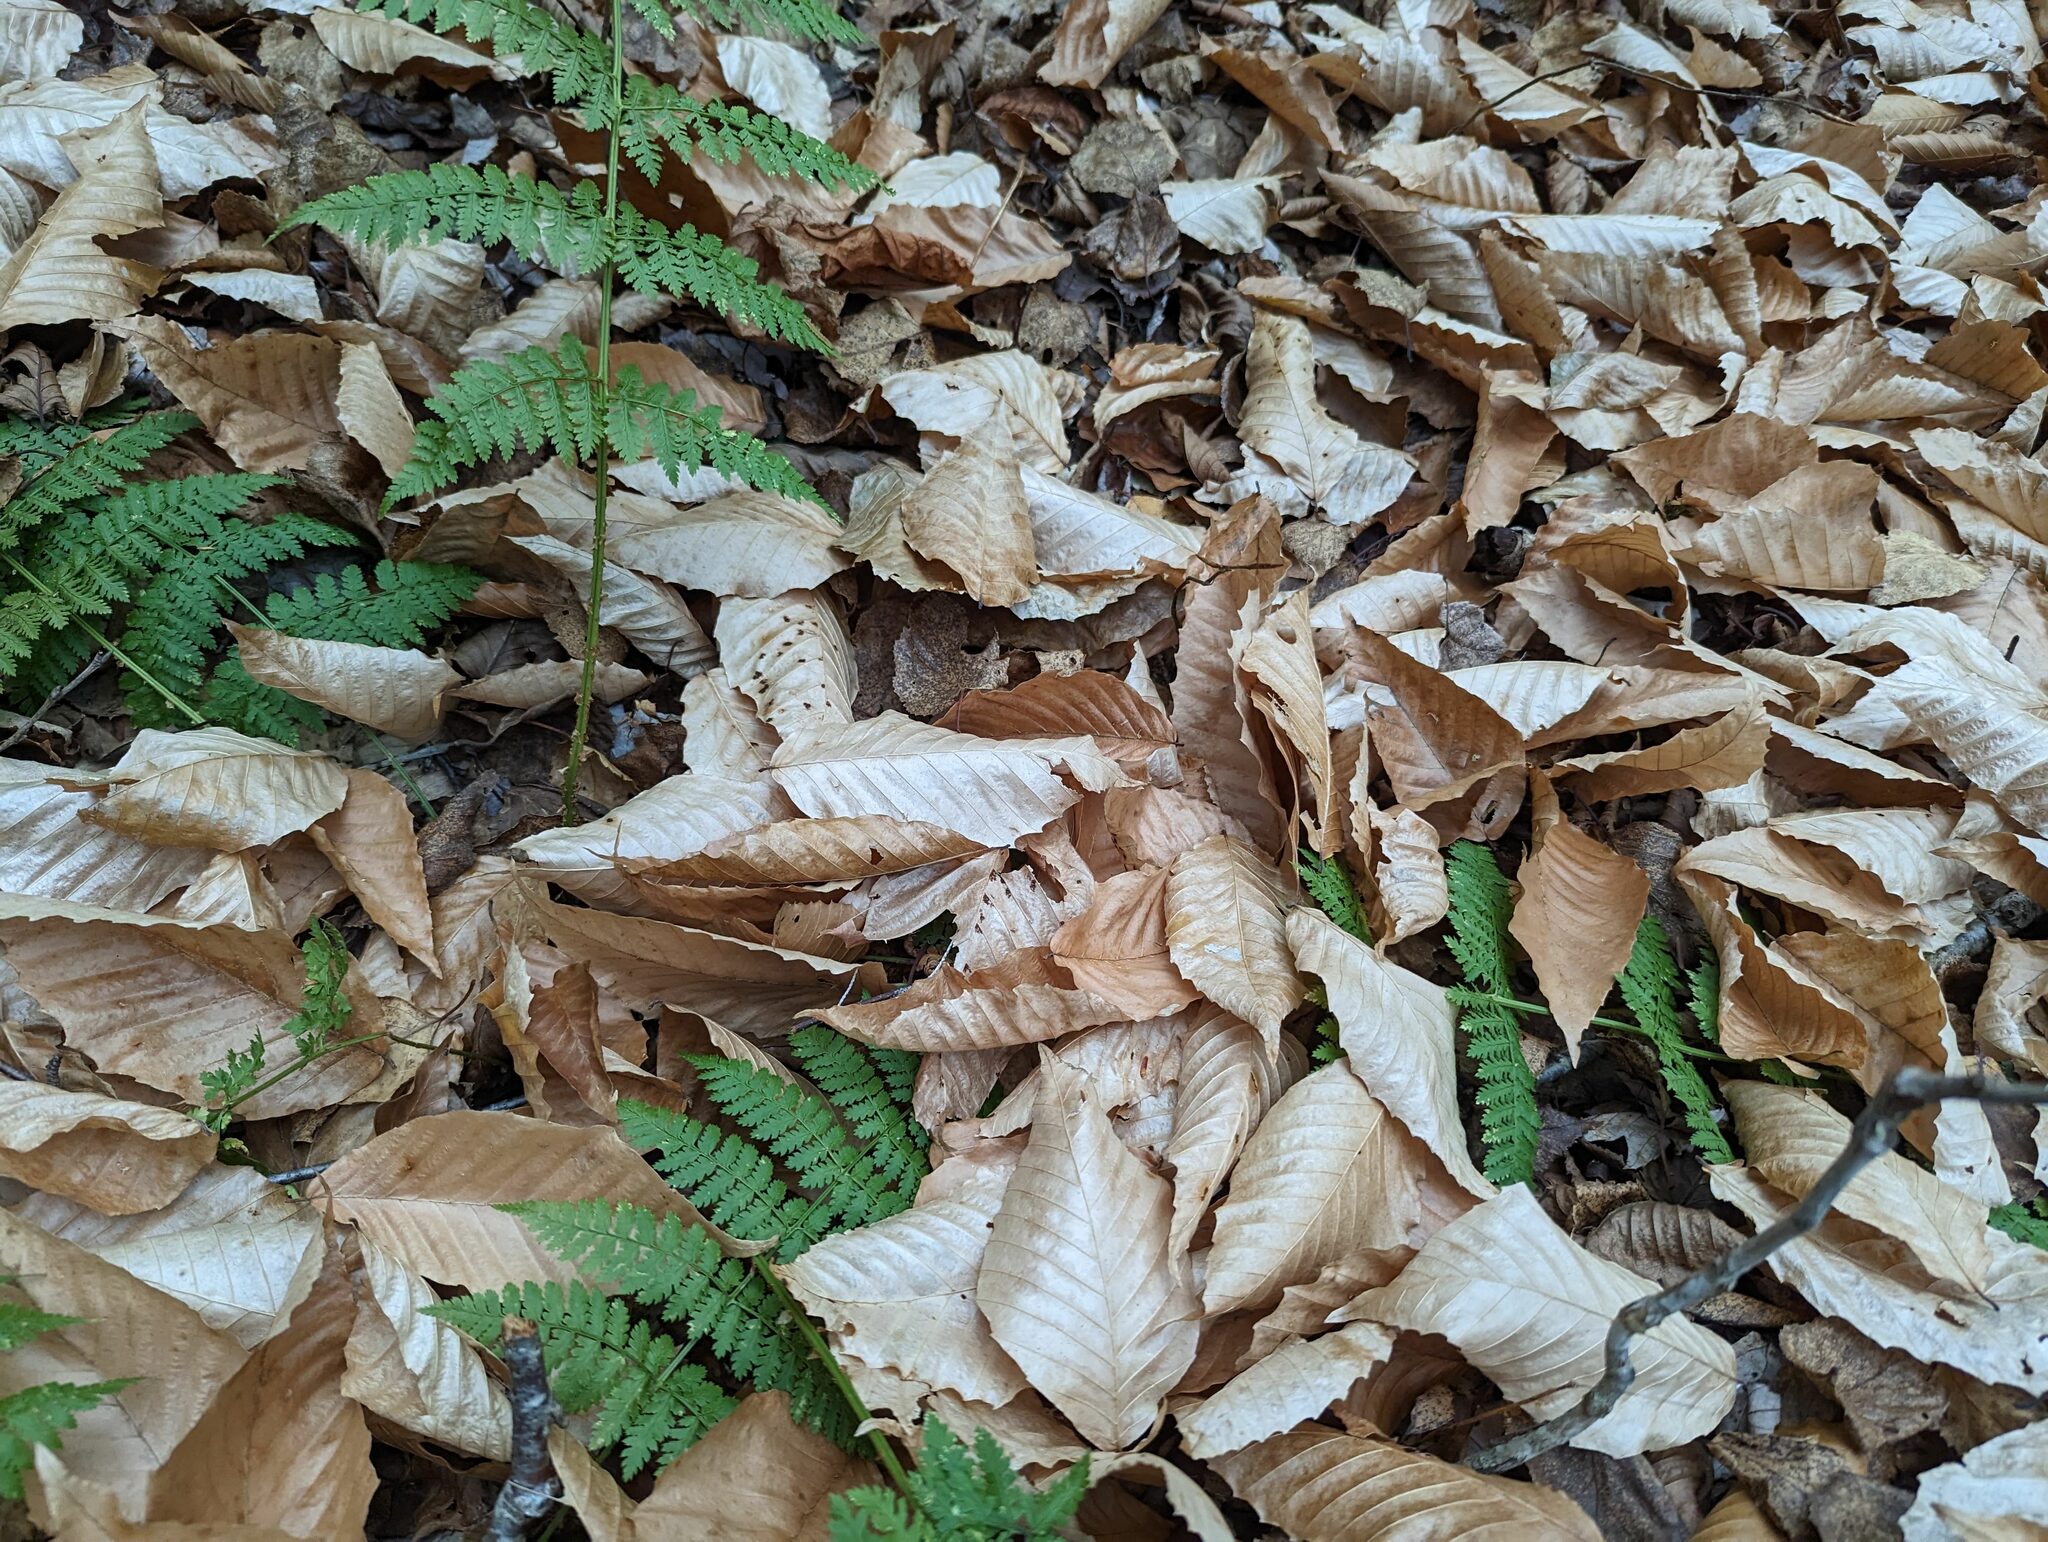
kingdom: Plantae
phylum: Tracheophyta
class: Magnoliopsida
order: Fagales
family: Fagaceae
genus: Fagus
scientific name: Fagus grandifolia
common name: American beech
